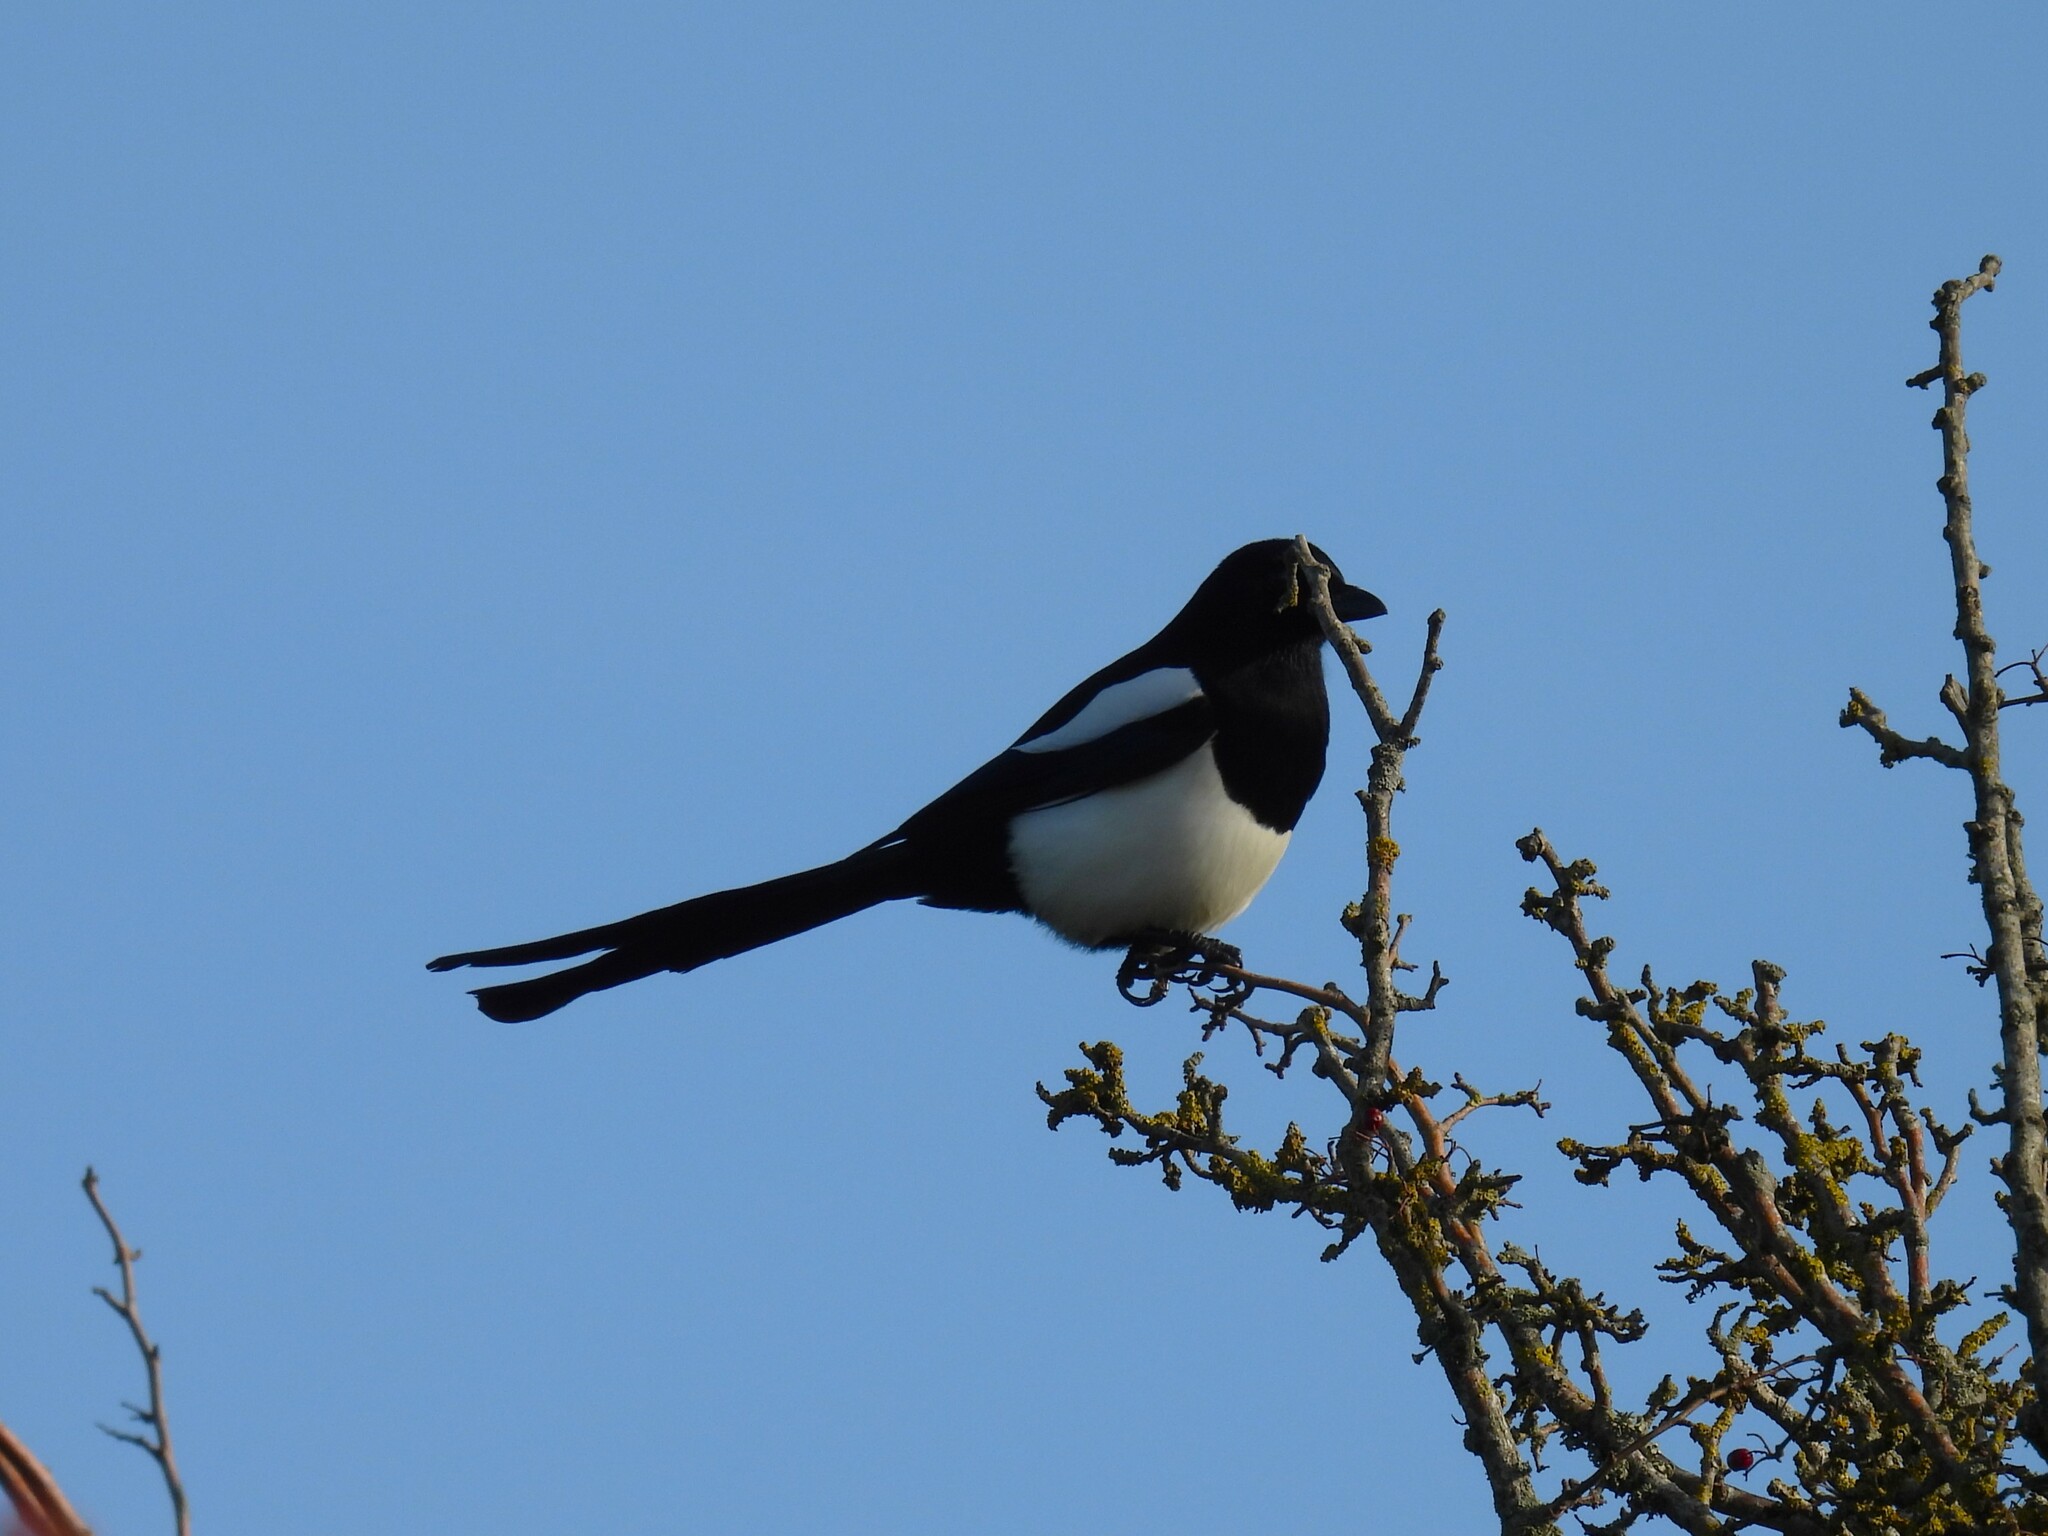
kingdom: Animalia
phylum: Chordata
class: Aves
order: Passeriformes
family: Corvidae
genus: Pica
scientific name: Pica pica
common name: Eurasian magpie
